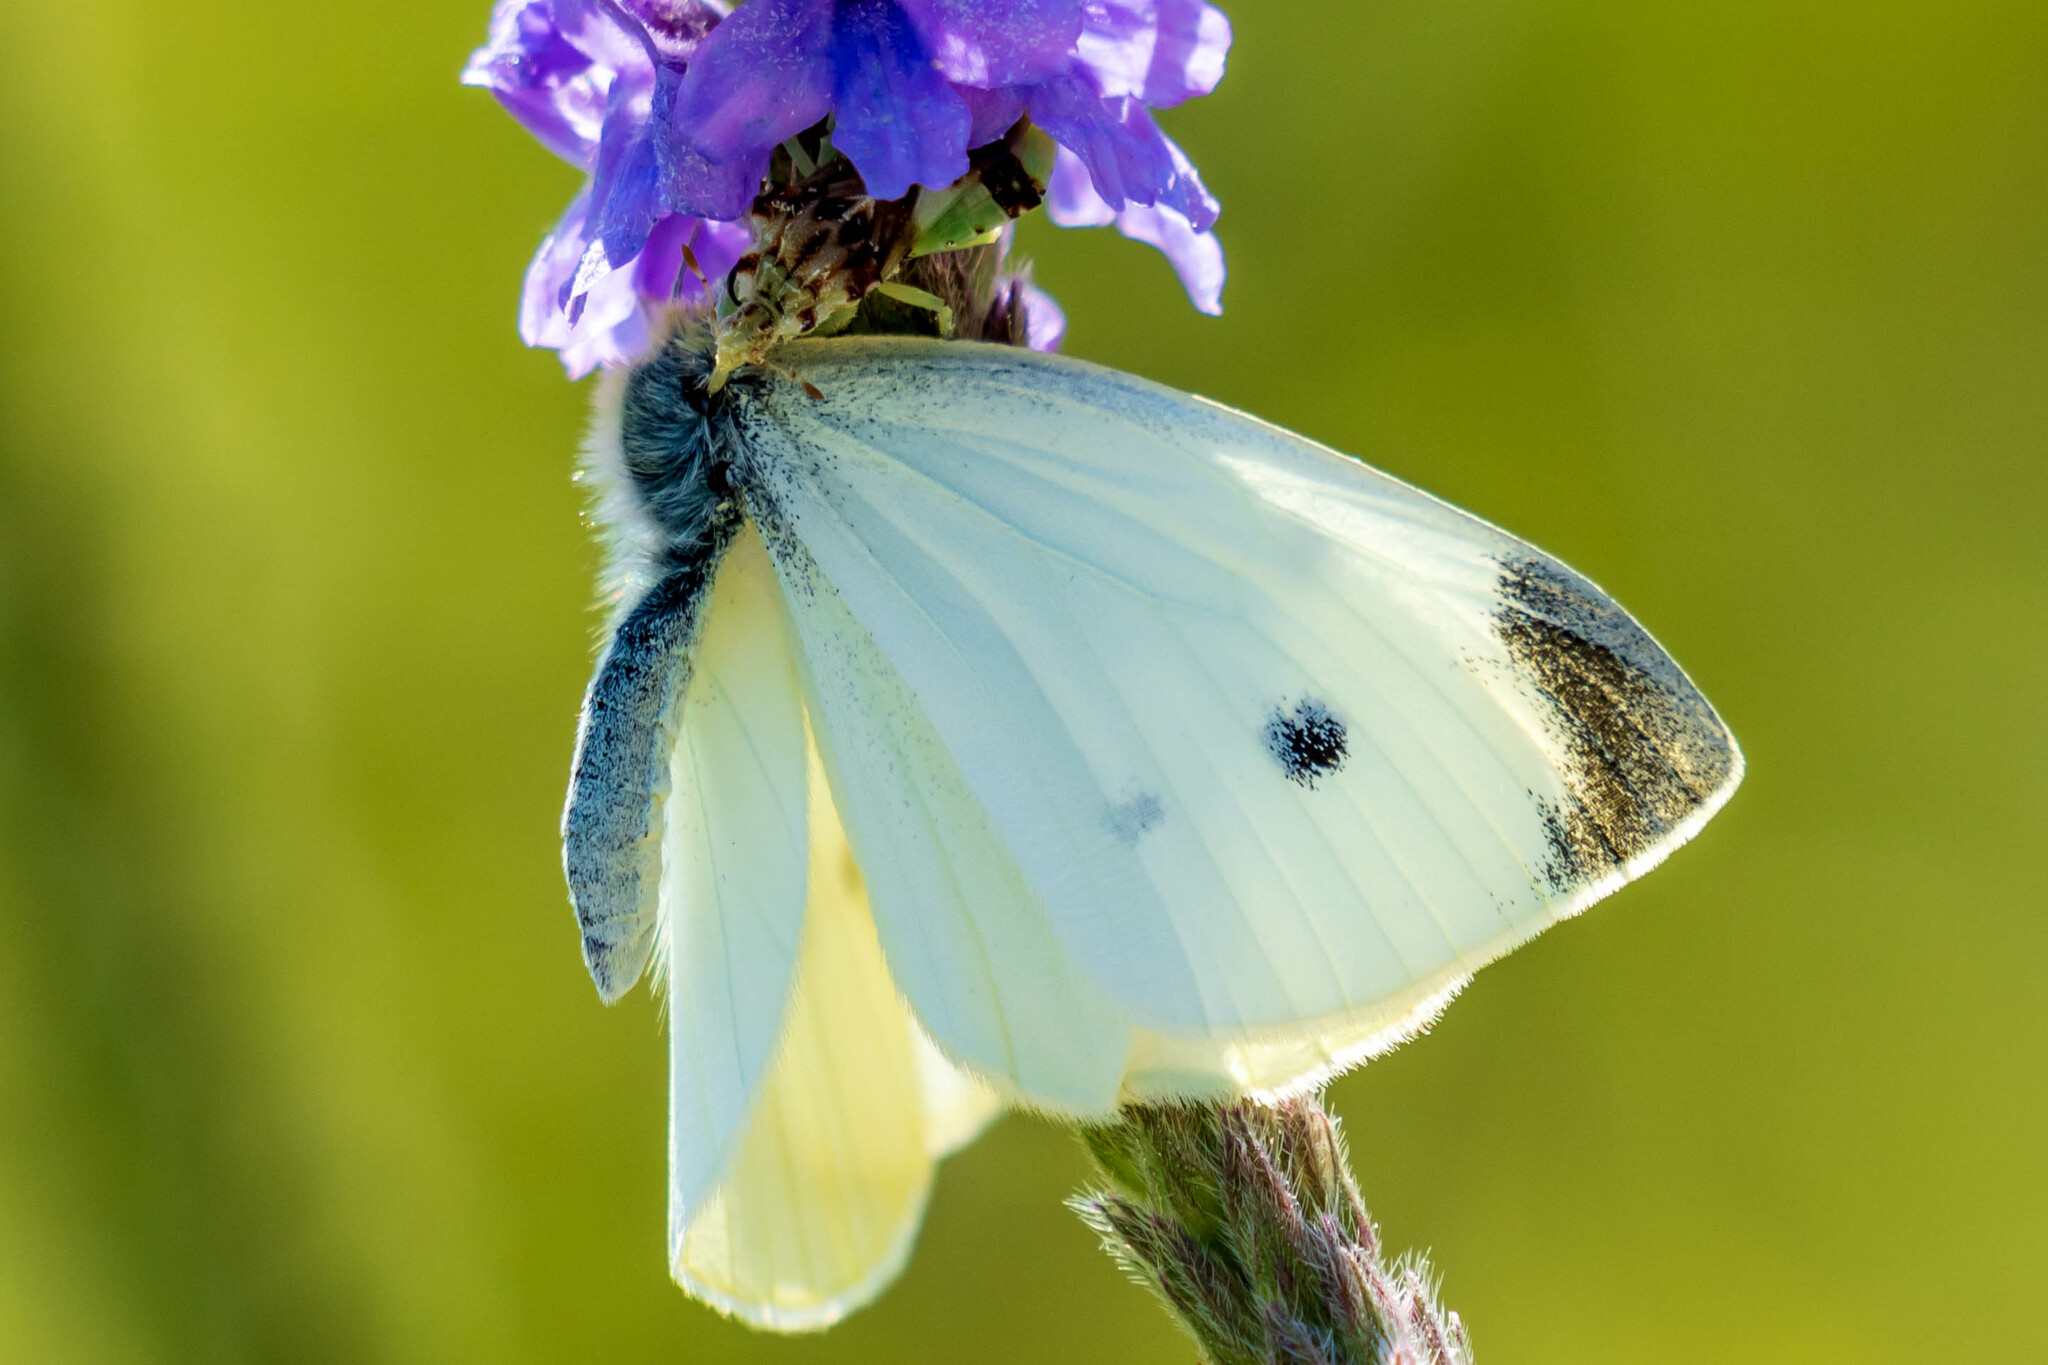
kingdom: Animalia
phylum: Arthropoda
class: Insecta
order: Lepidoptera
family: Pieridae
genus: Pieris
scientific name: Pieris rapae
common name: Small white
